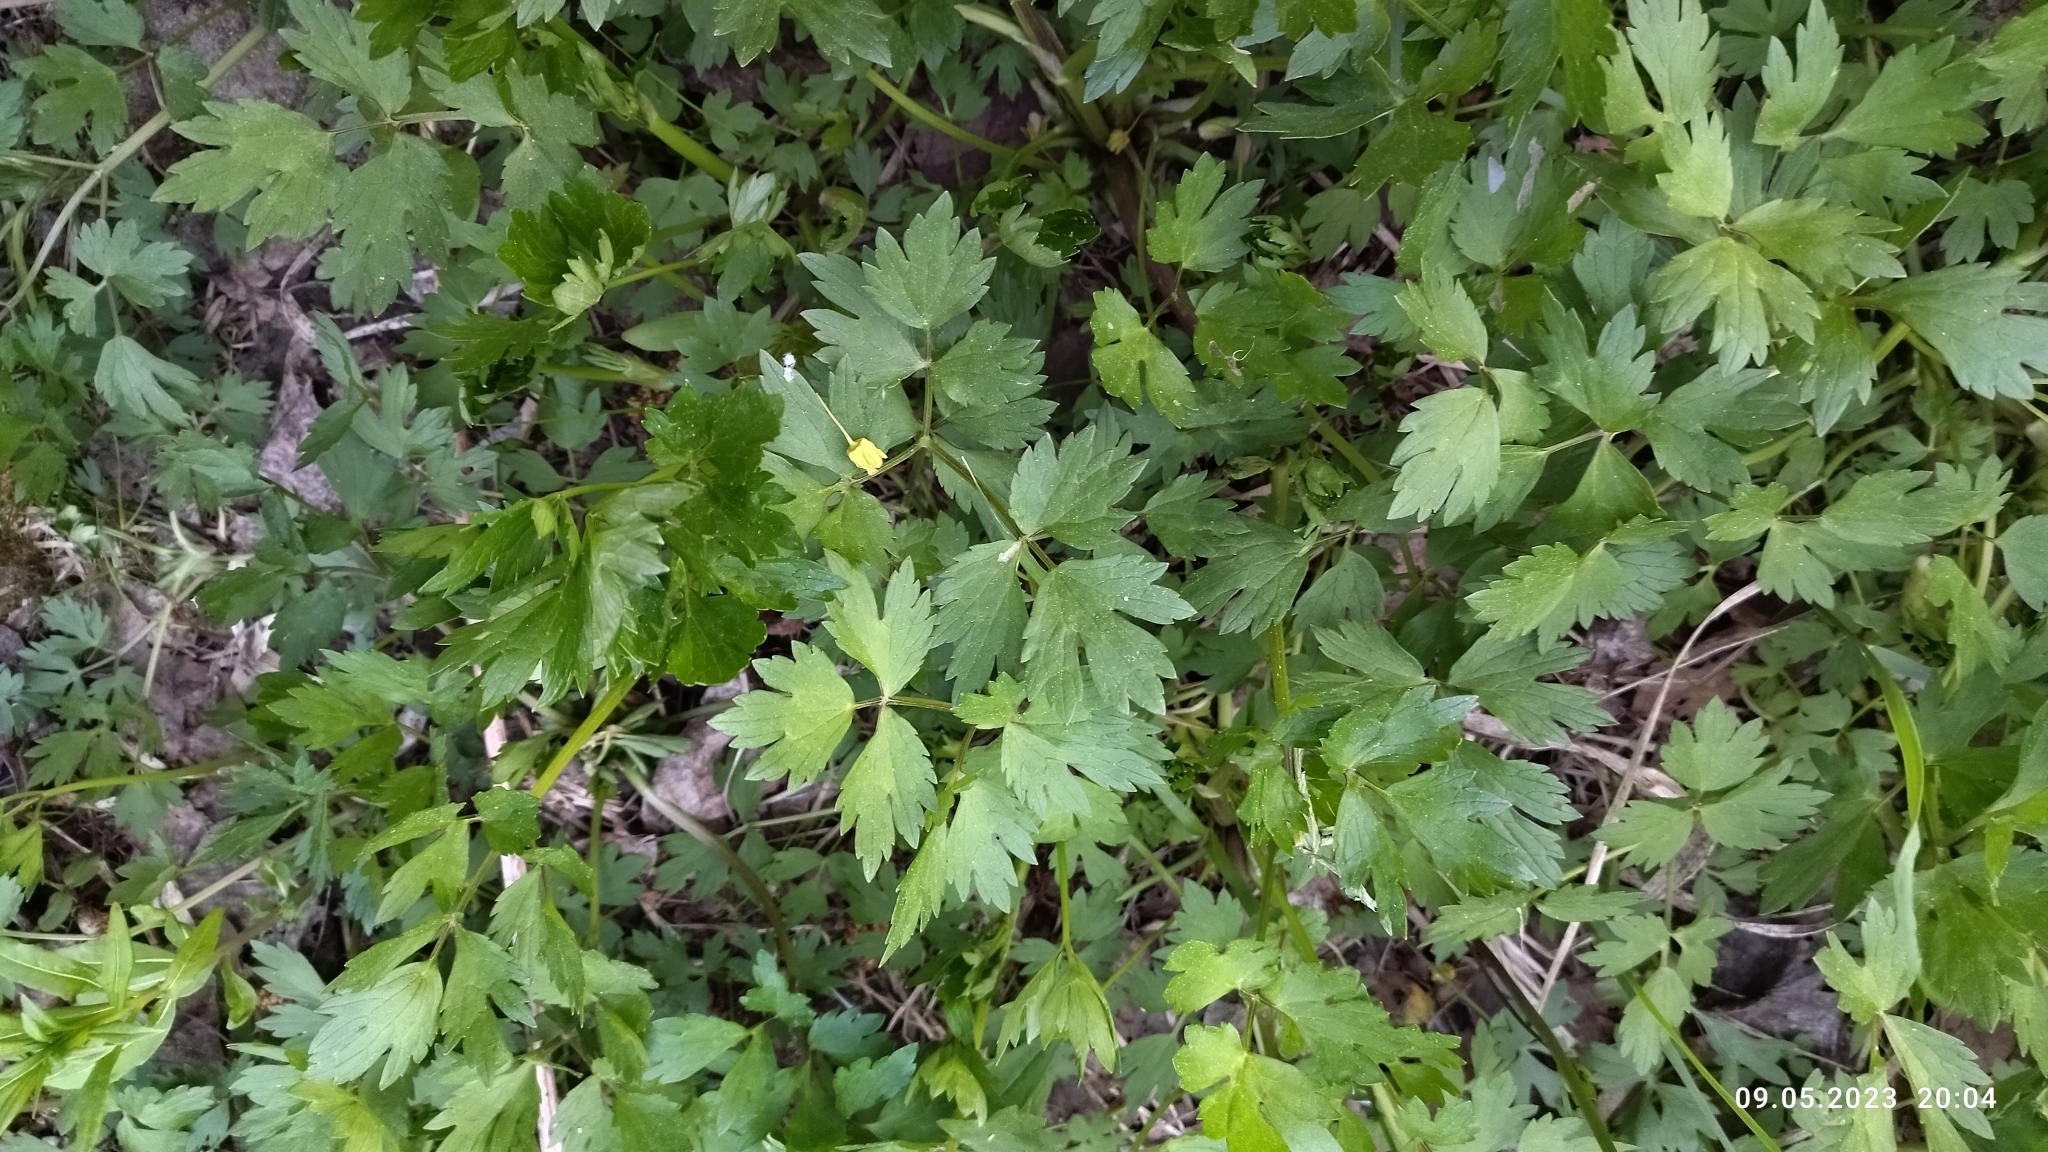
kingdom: Plantae
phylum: Tracheophyta
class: Magnoliopsida
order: Ranunculales
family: Ranunculaceae
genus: Ranunculus
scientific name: Ranunculus repens
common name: Creeping buttercup
